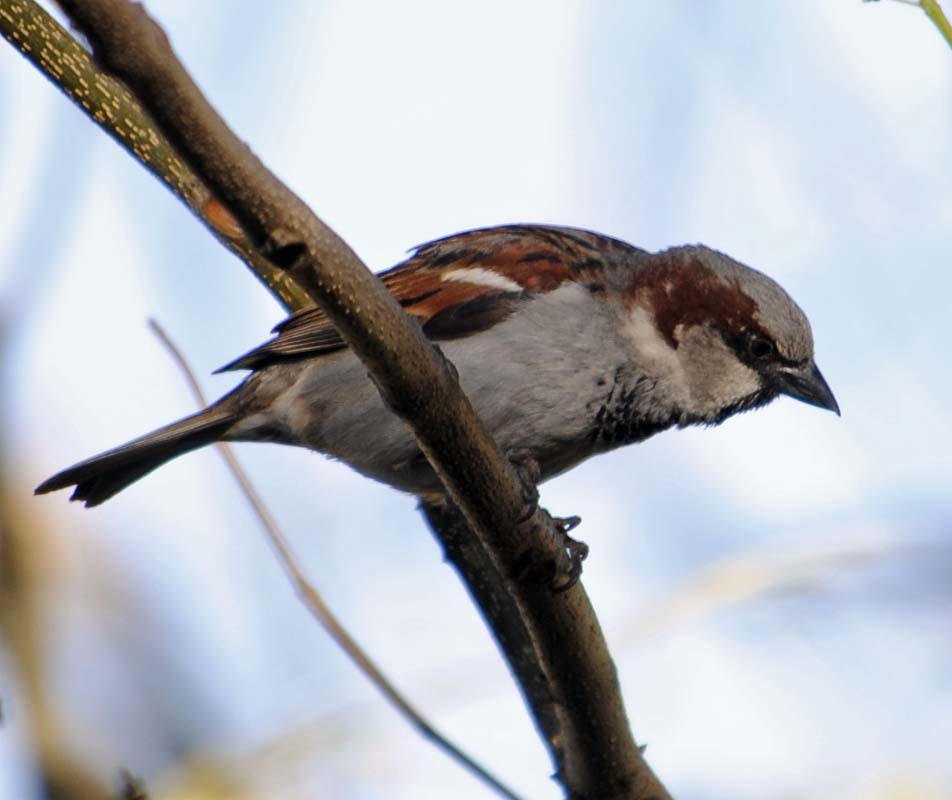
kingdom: Animalia
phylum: Chordata
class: Aves
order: Passeriformes
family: Passeridae
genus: Passer
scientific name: Passer domesticus
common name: House sparrow
